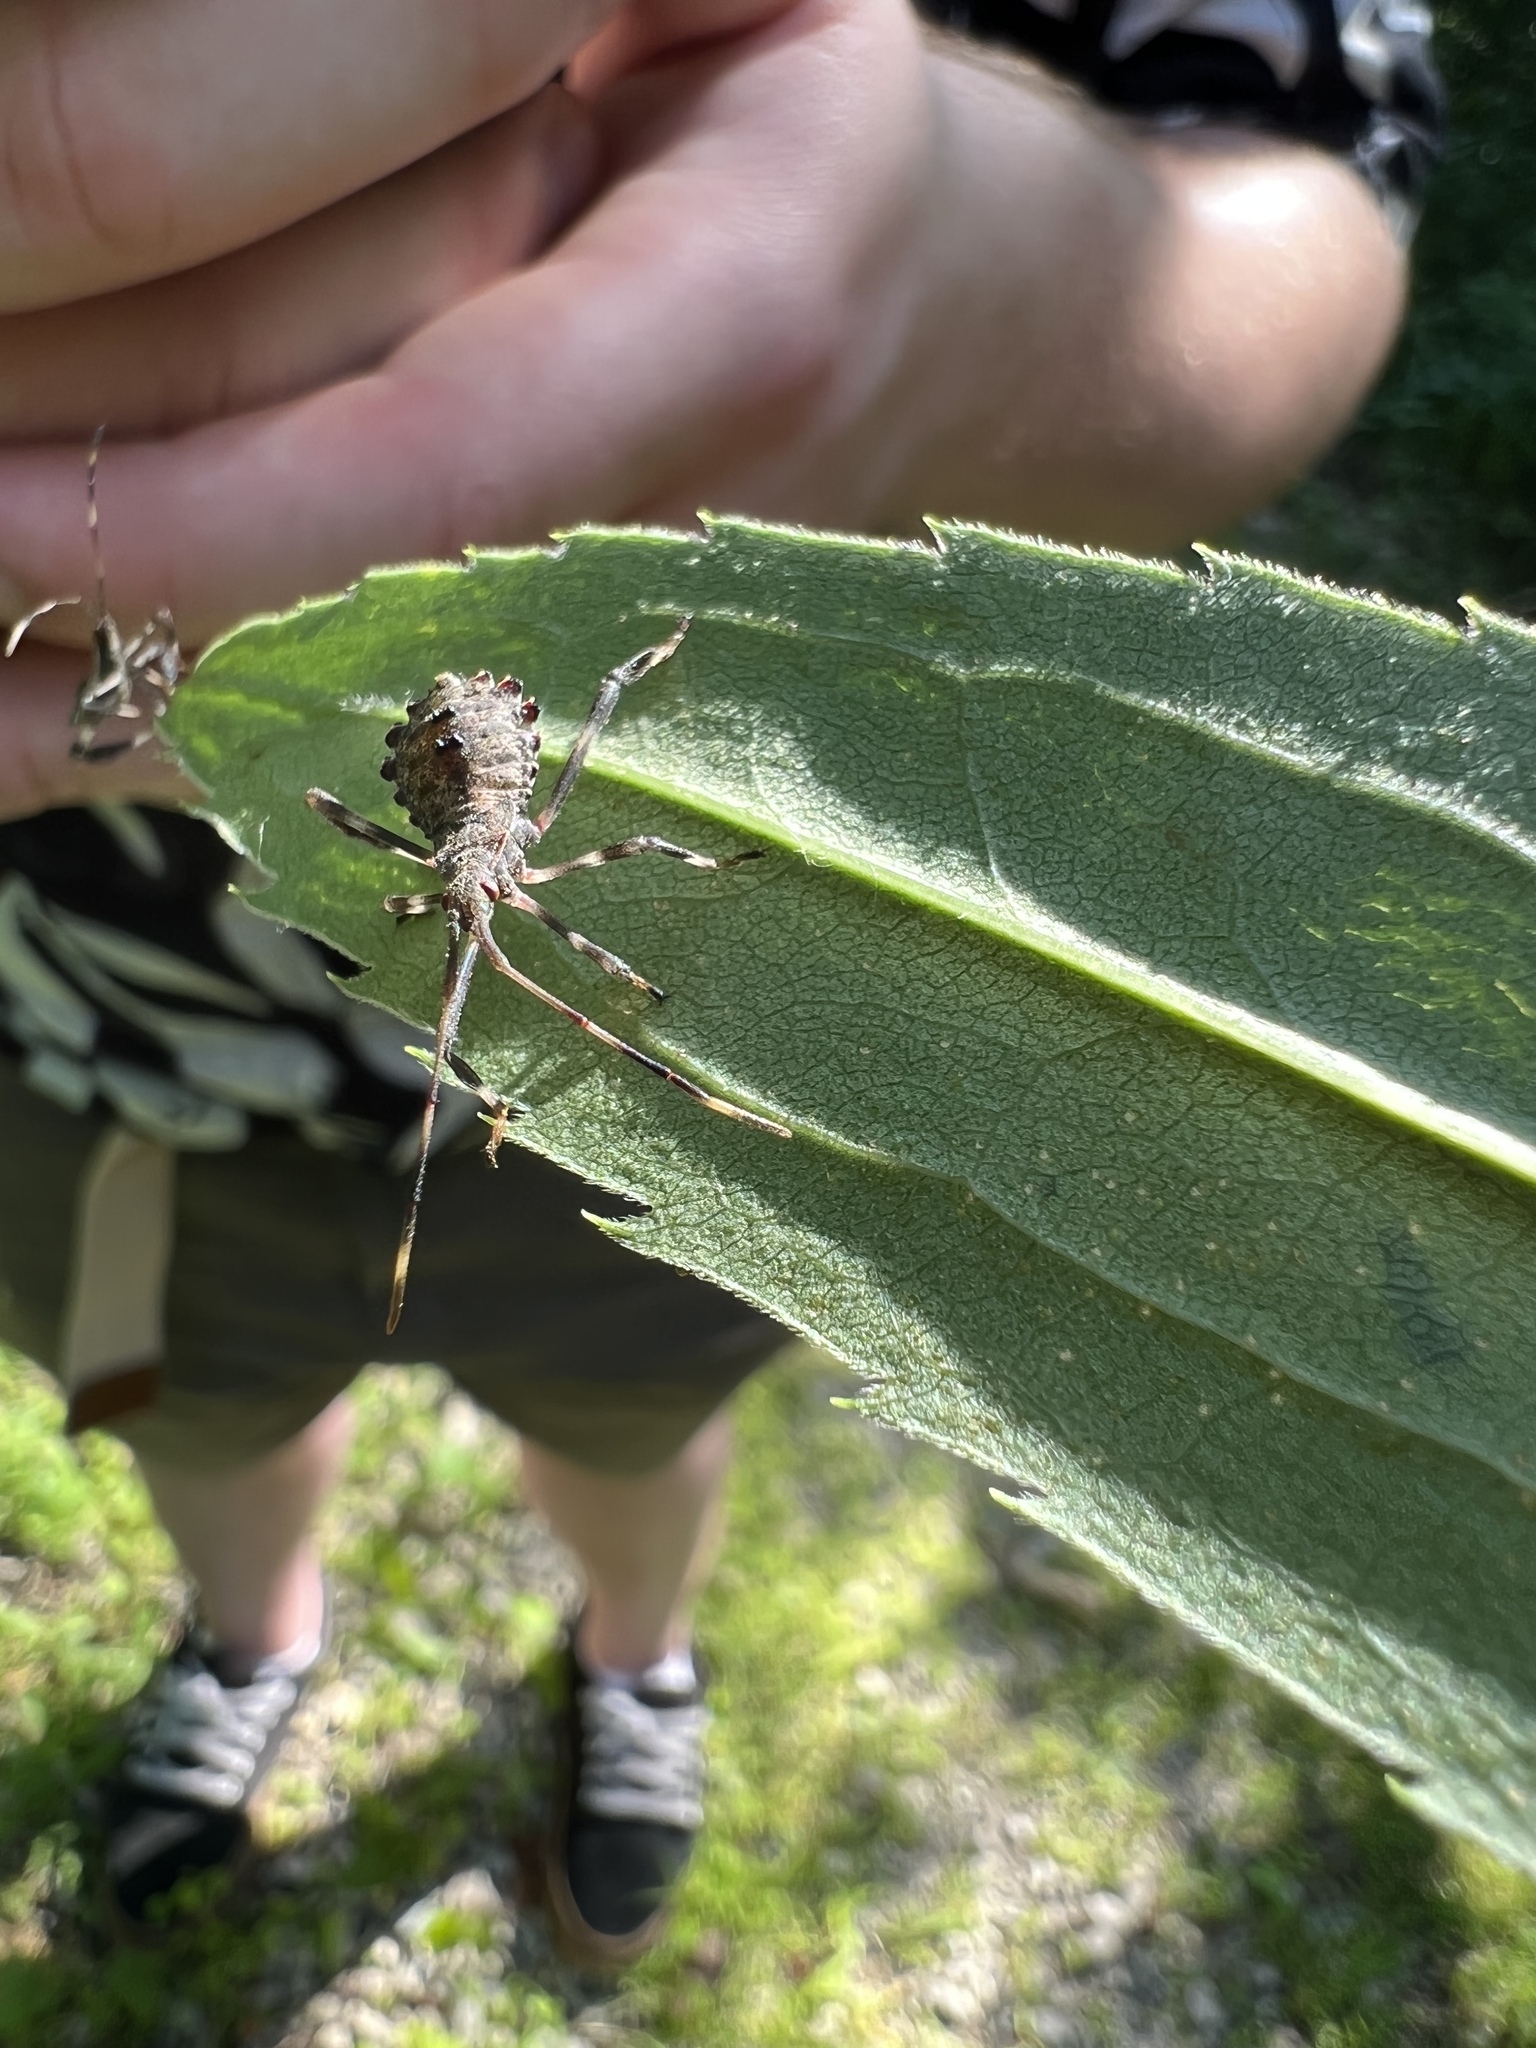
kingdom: Animalia
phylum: Arthropoda
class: Insecta
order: Hemiptera
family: Coreidae
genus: Acanthocephala
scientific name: Acanthocephala terminalis
